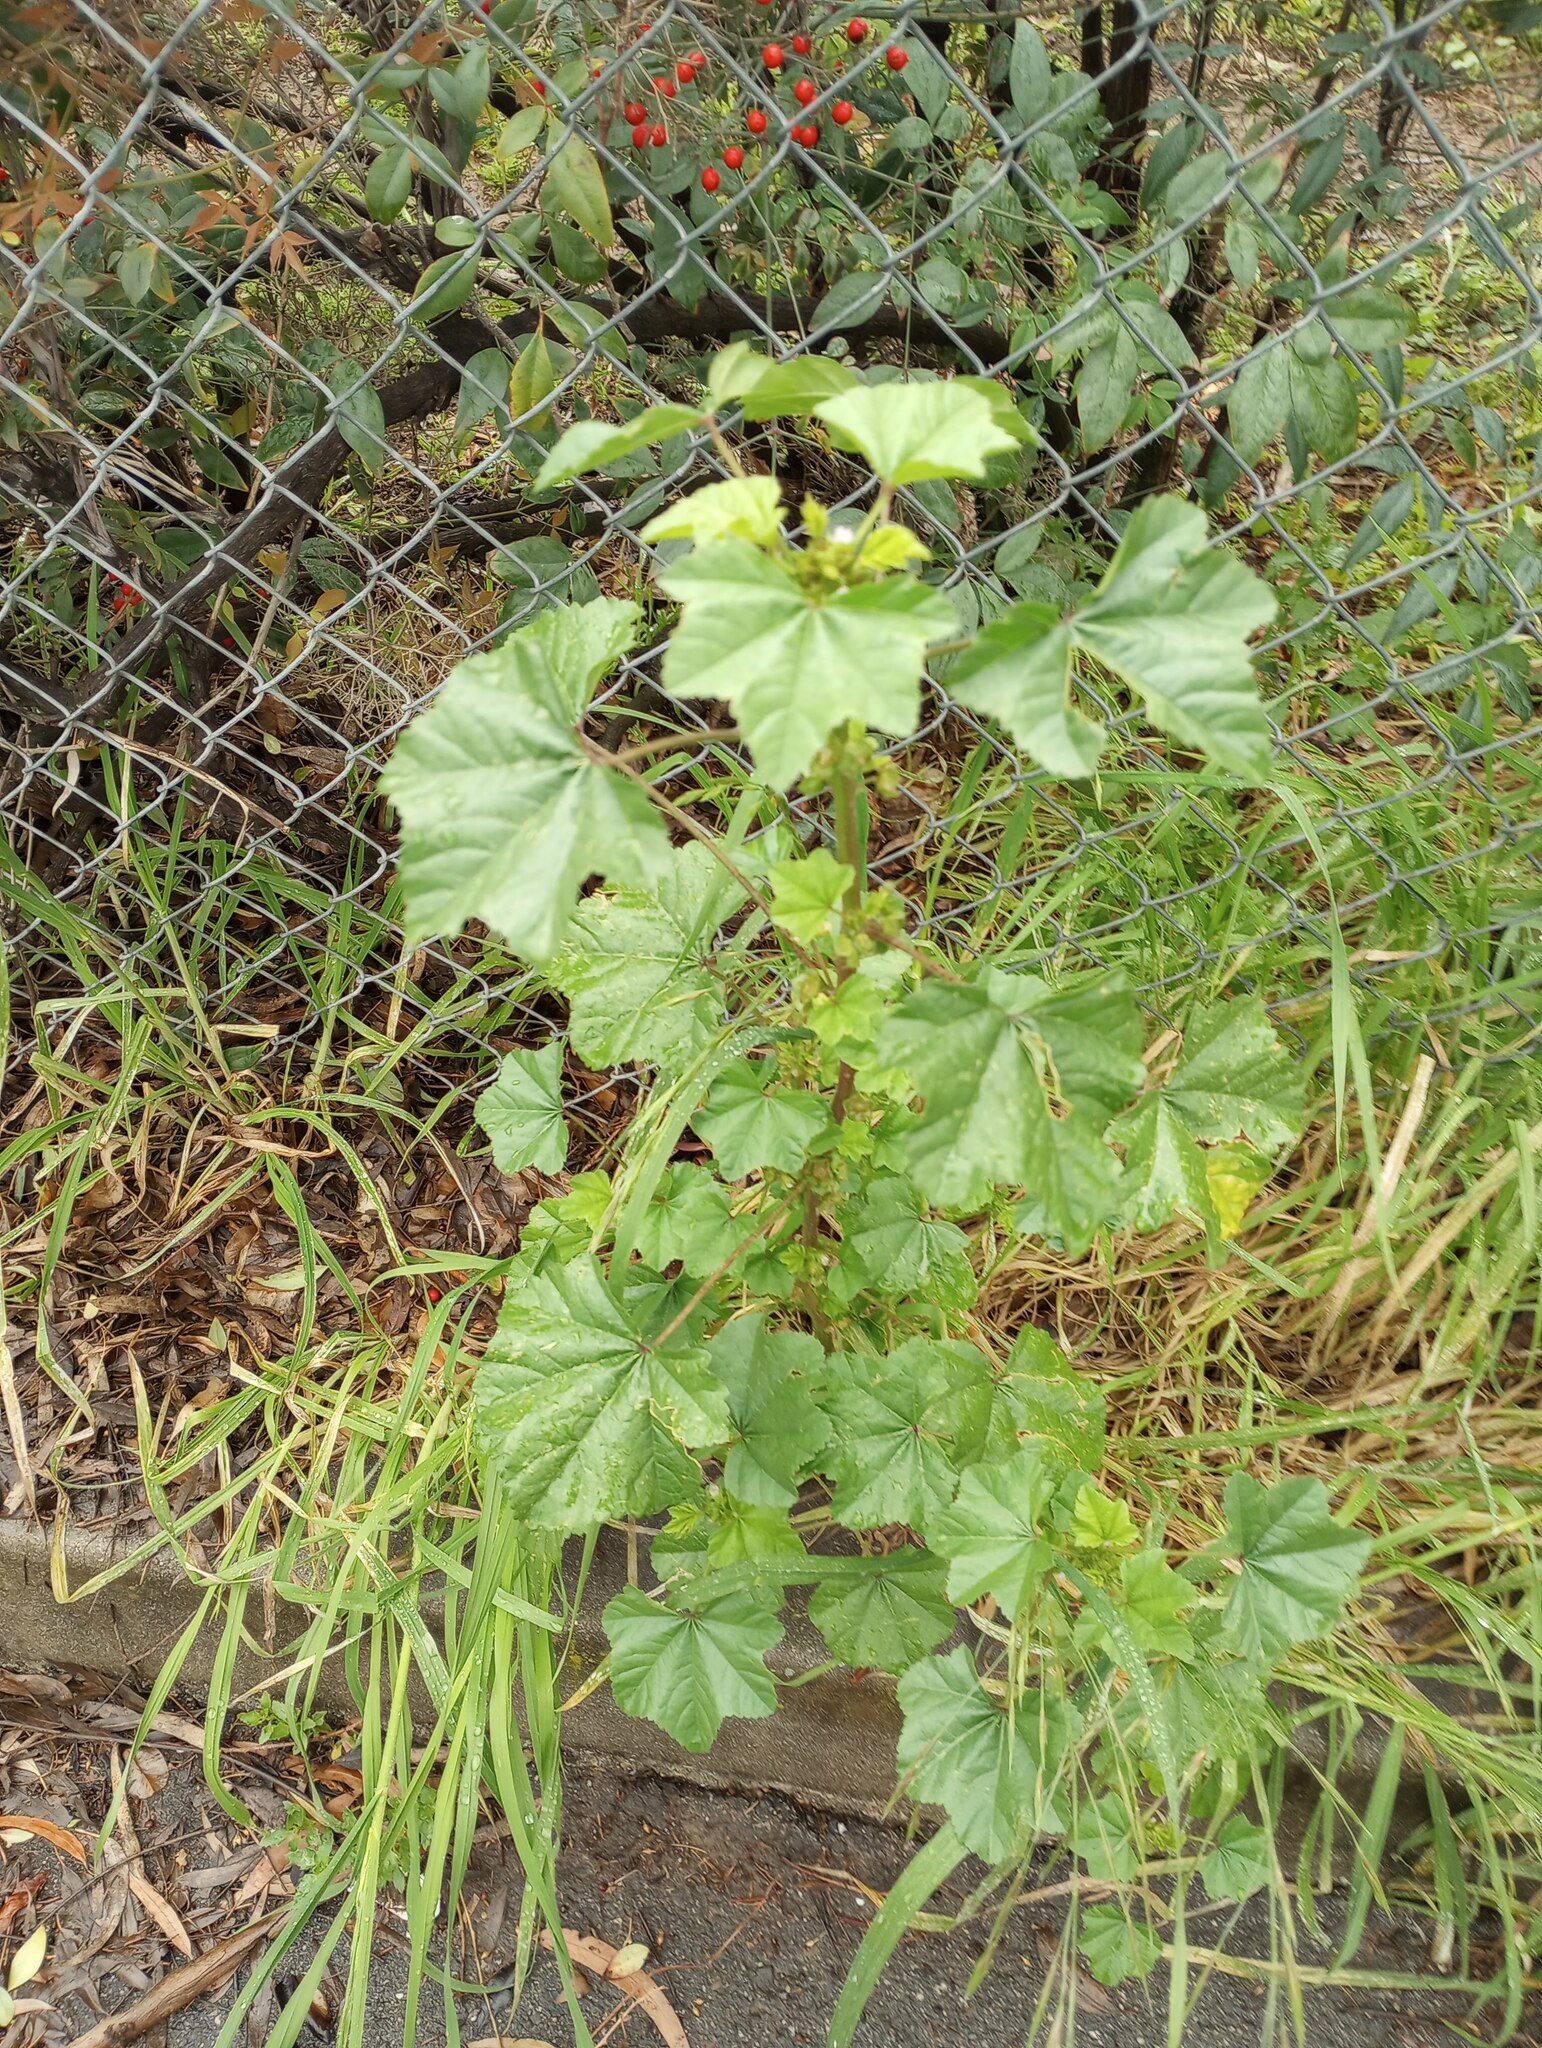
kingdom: Plantae
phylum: Tracheophyta
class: Magnoliopsida
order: Malvales
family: Malvaceae
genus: Malva
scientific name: Malva parviflora
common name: Least mallow
